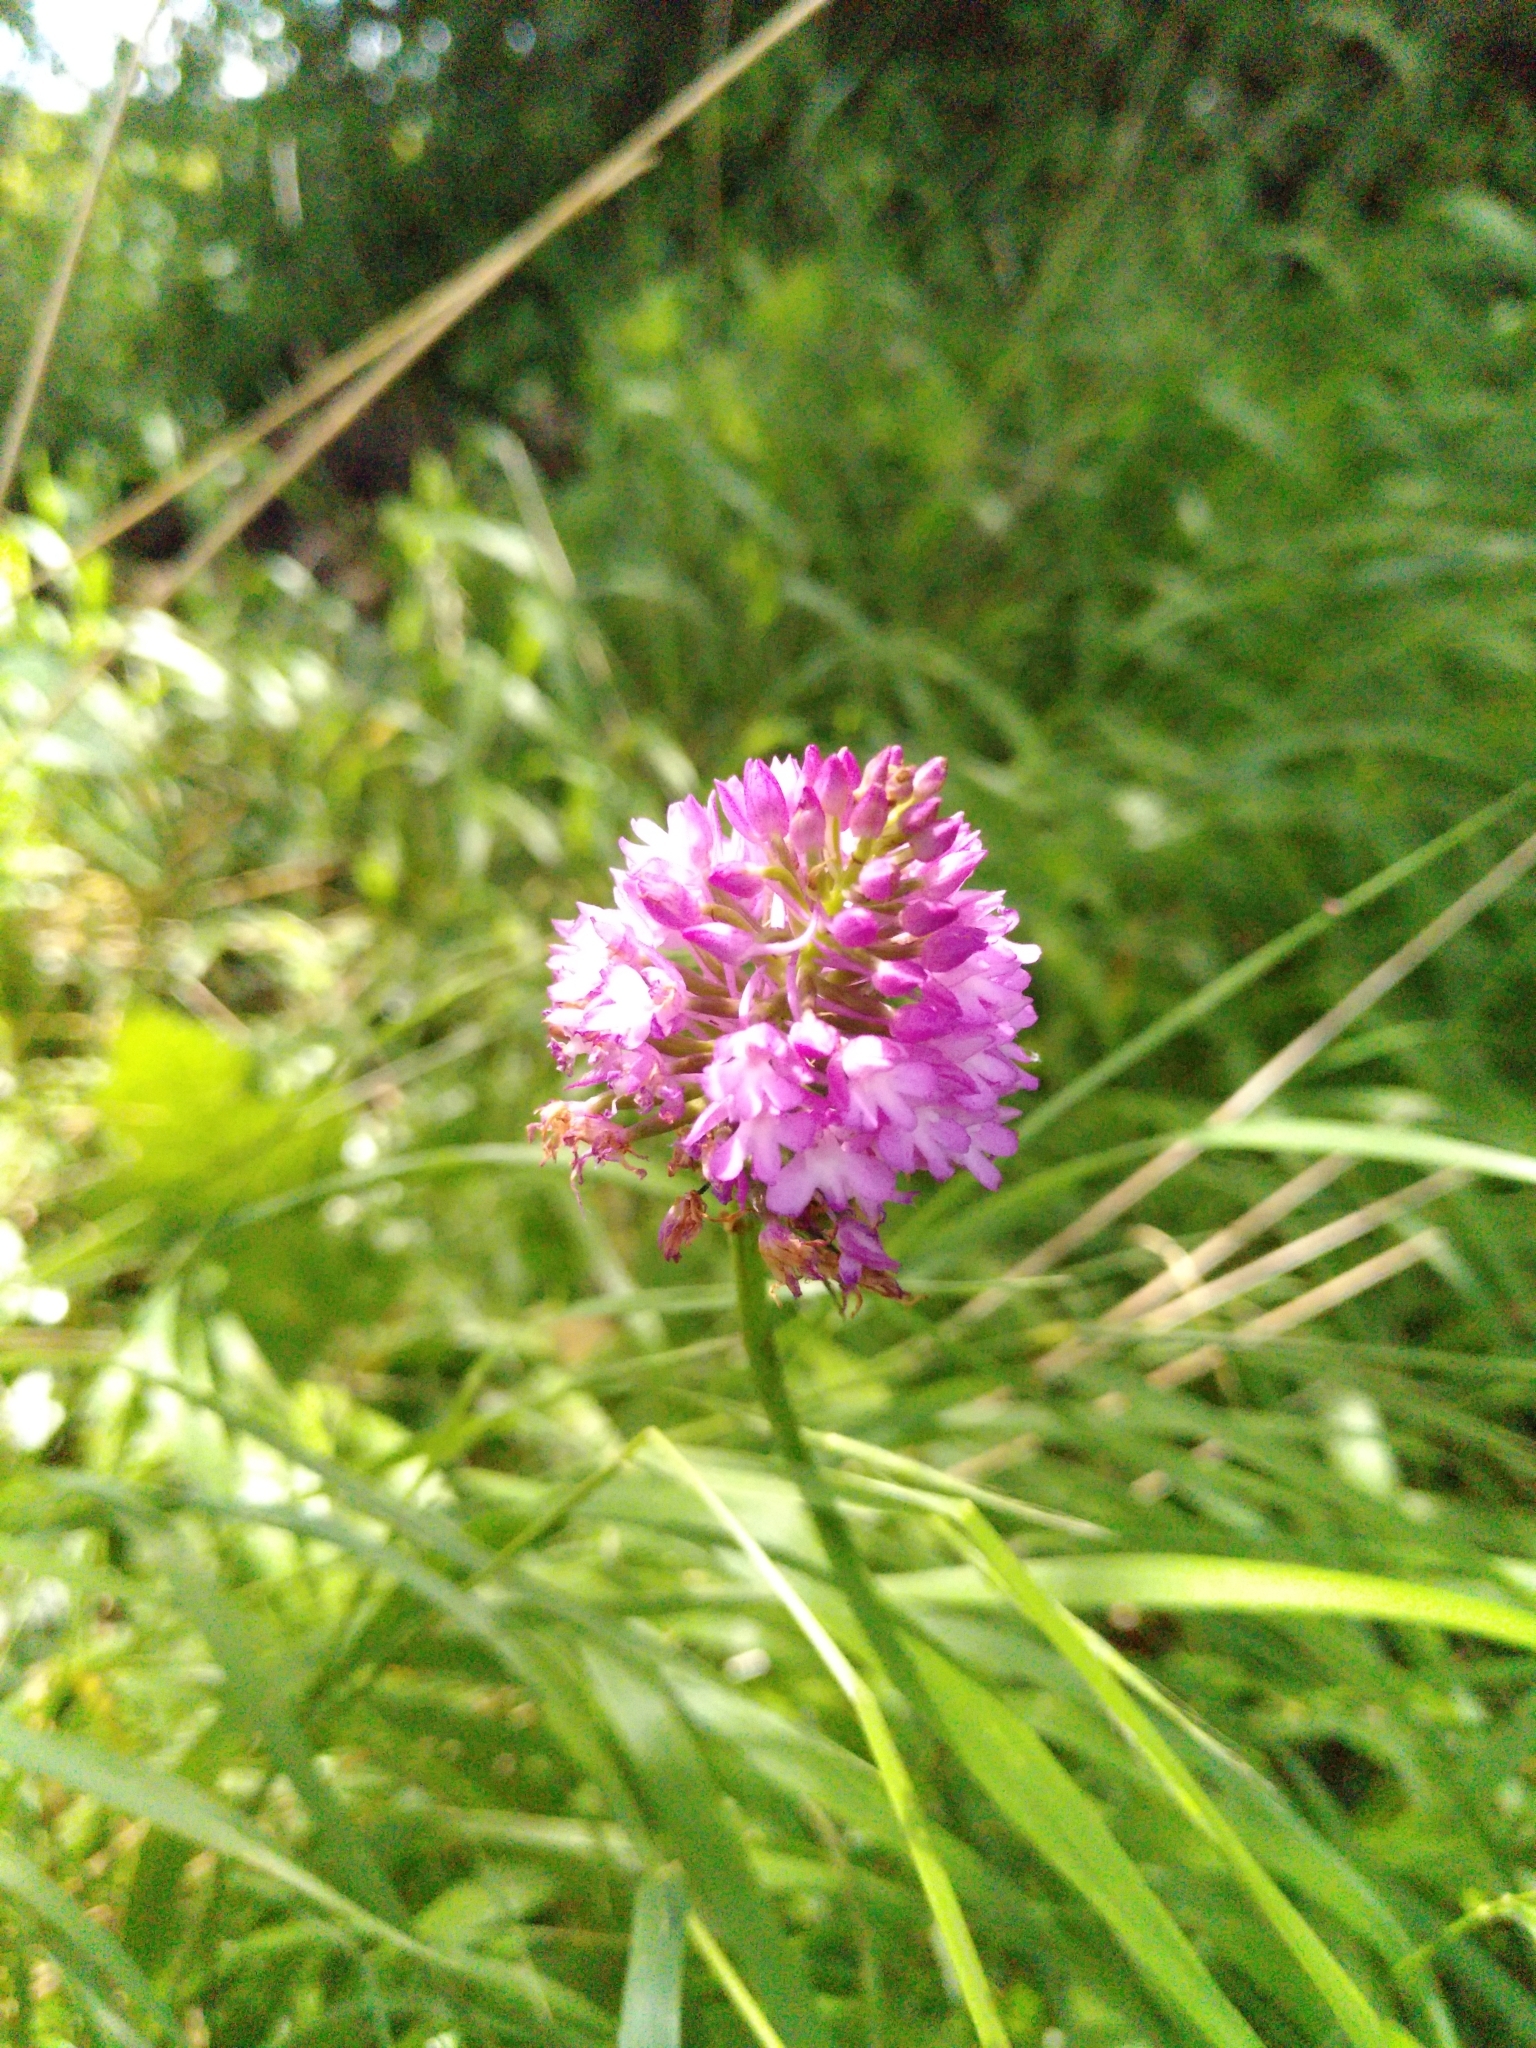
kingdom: Plantae
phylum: Tracheophyta
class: Liliopsida
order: Asparagales
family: Orchidaceae
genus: Anacamptis
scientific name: Anacamptis pyramidalis
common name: Pyramidal orchid
